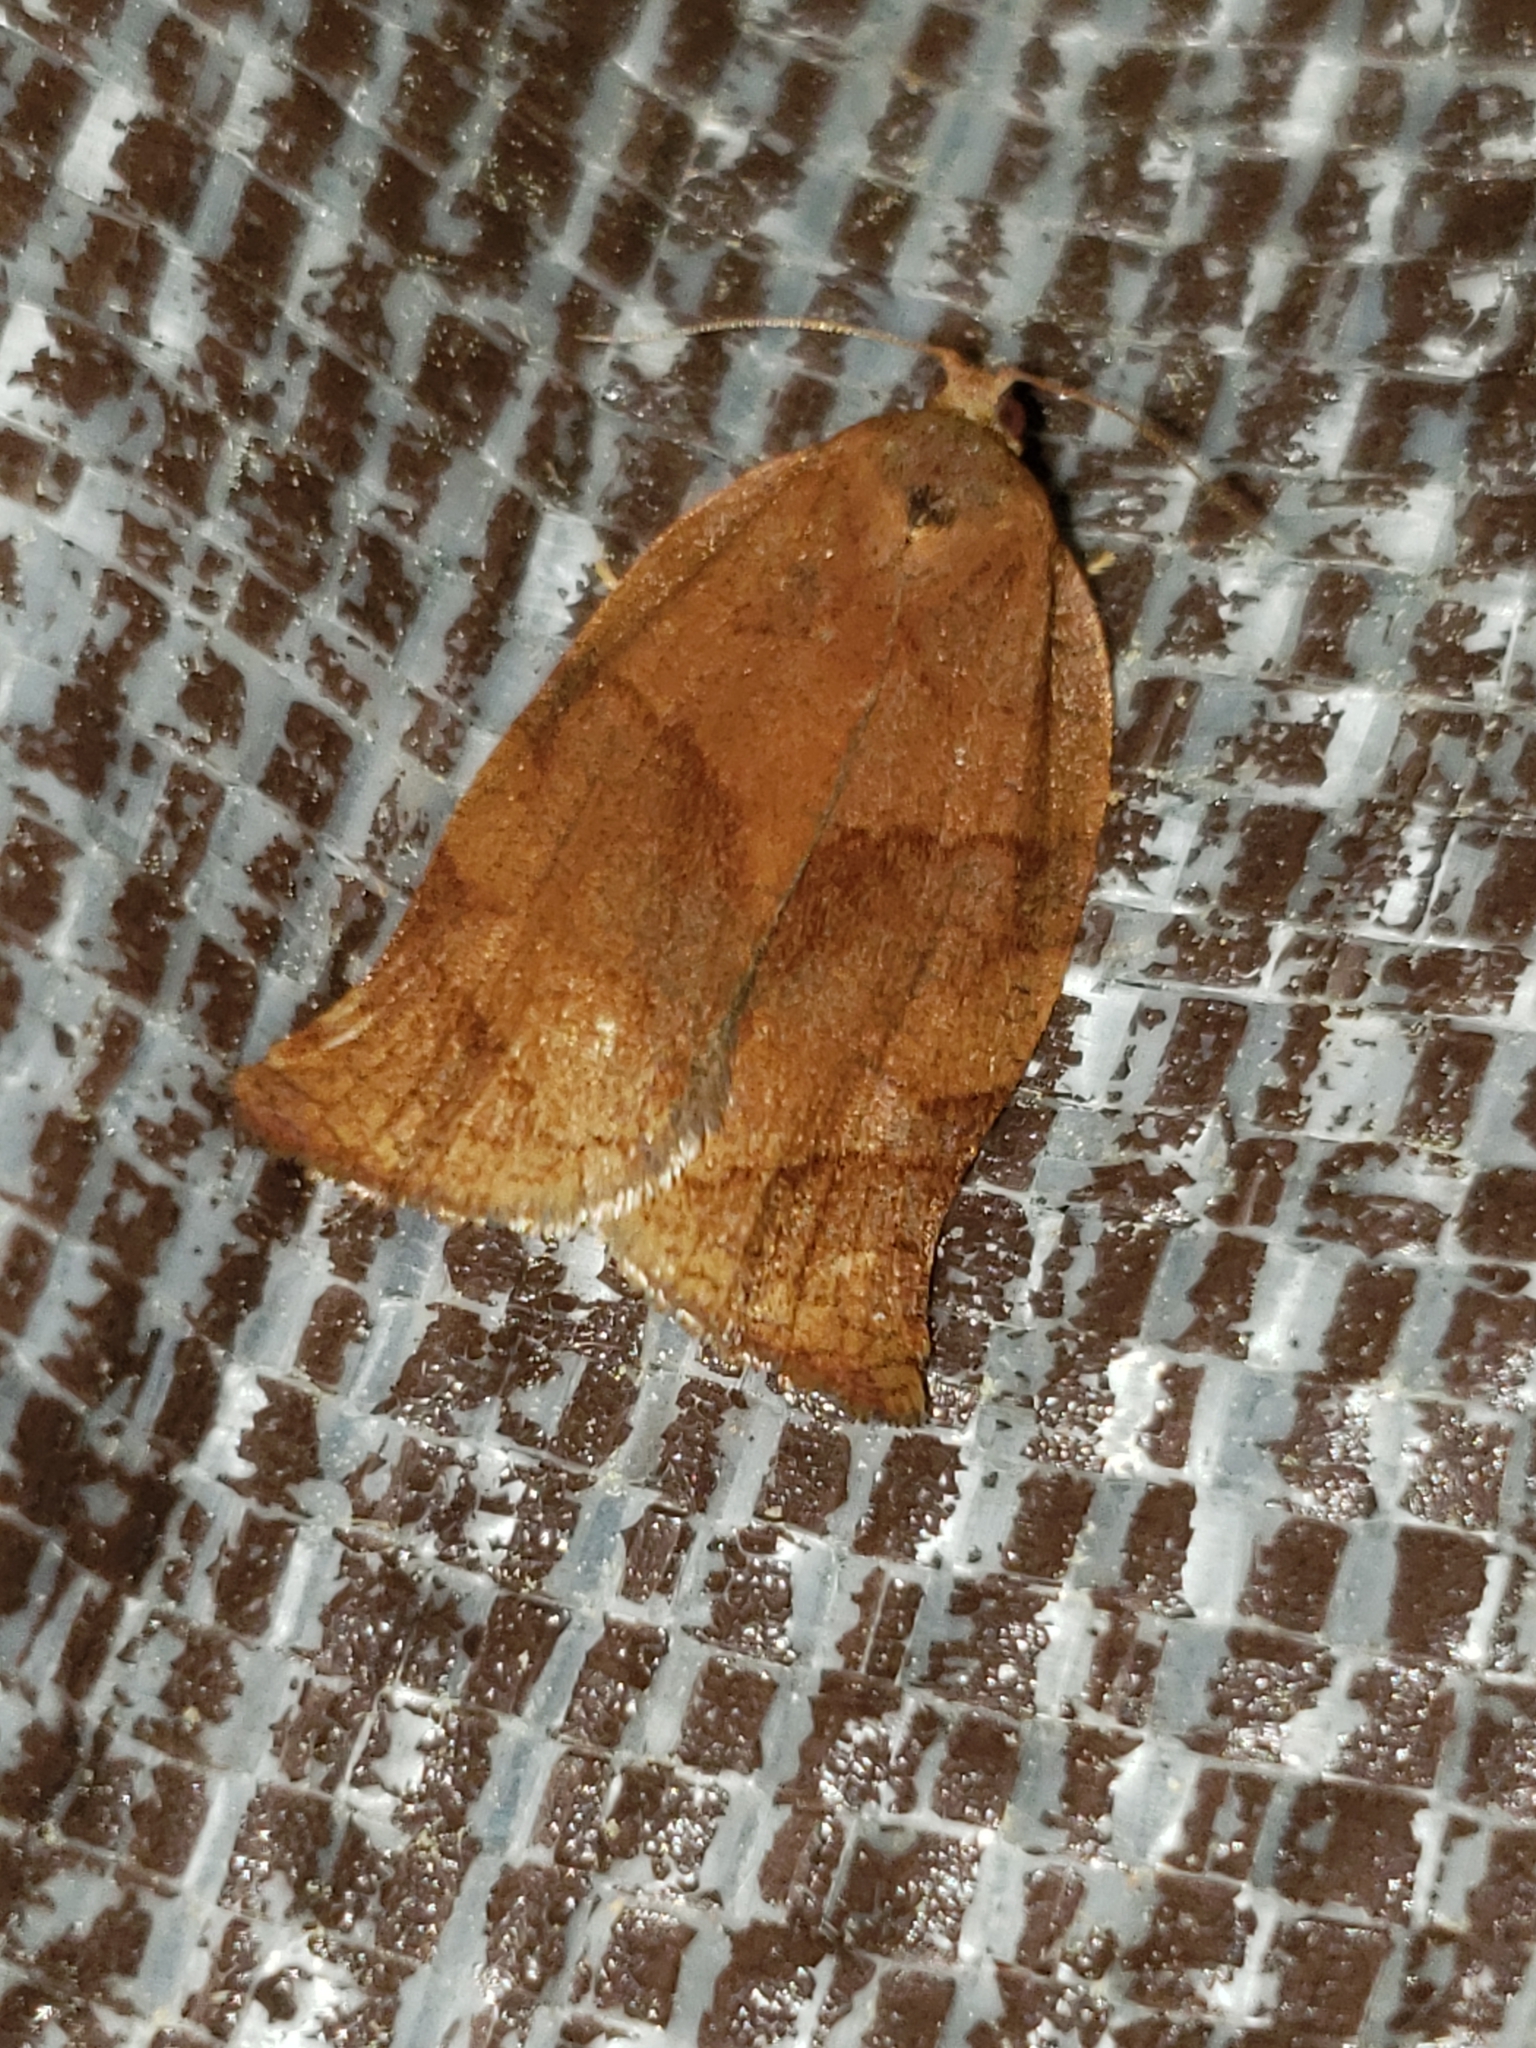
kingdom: Animalia
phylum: Arthropoda
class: Insecta
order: Lepidoptera
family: Tortricidae
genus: Choristoneura
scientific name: Choristoneura rosaceana
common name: Oblique-banded leafroller moth
